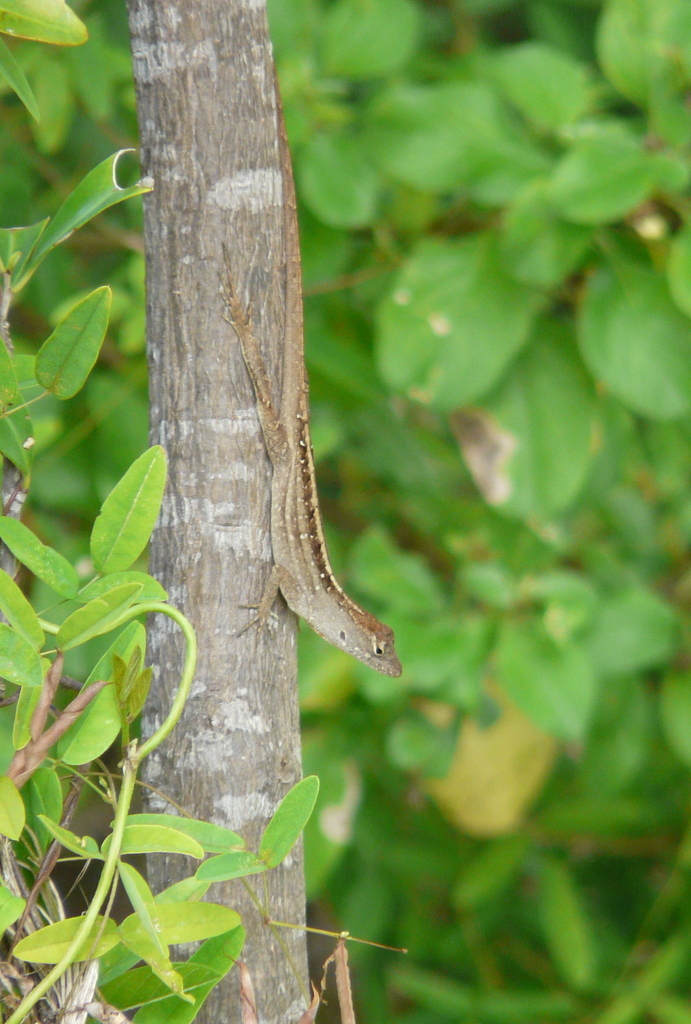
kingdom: Animalia
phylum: Chordata
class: Squamata
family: Dactyloidae
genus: Anolis
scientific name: Anolis sagrei
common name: Brown anole
